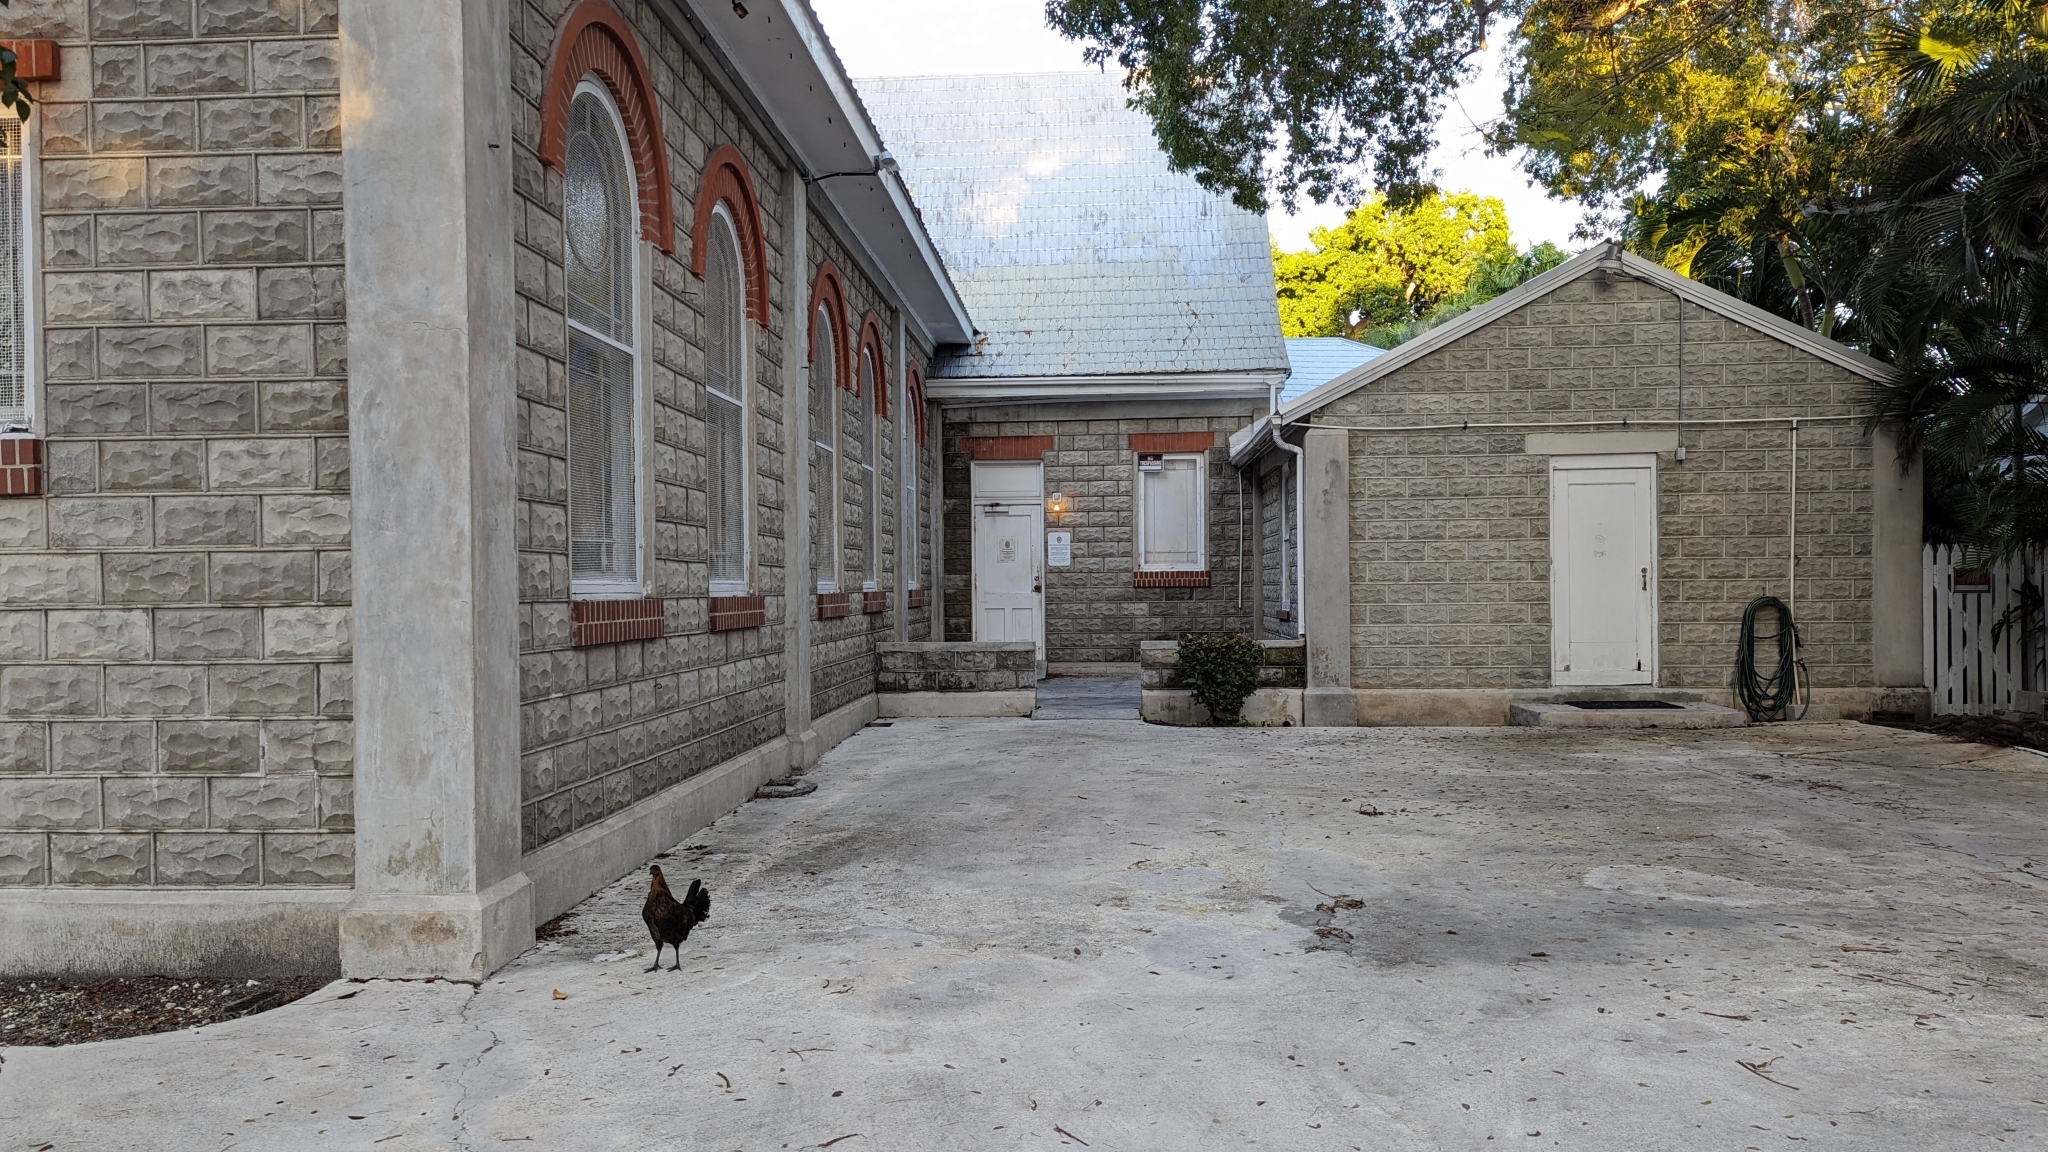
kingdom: Animalia
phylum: Chordata
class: Aves
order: Galliformes
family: Phasianidae
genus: Gallus
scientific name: Gallus gallus
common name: Red junglefowl
